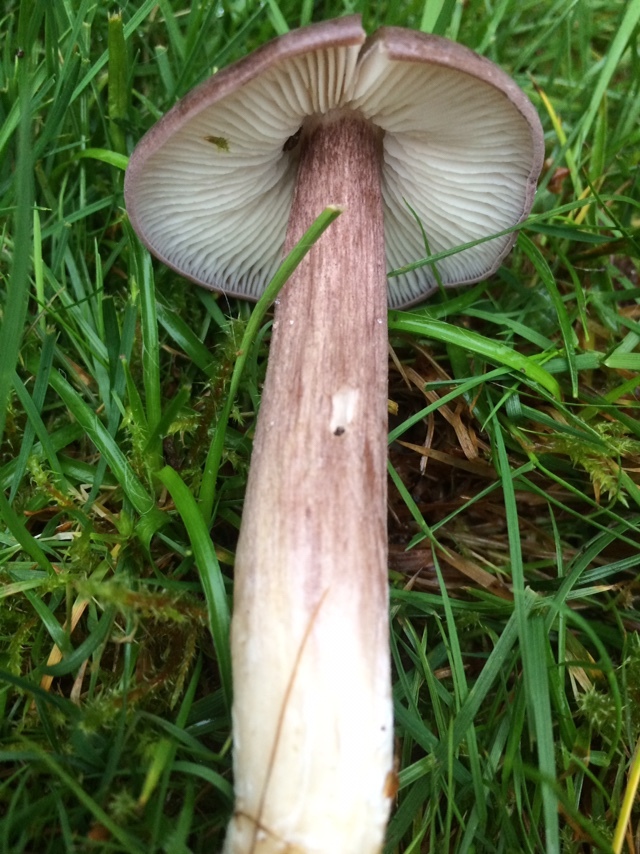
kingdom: Fungi
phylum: Basidiomycota
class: Agaricomycetes
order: Agaricales
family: Entolomataceae
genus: Entoloma
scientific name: Entoloma porphyrophaeum
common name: Lilac pinkgill
